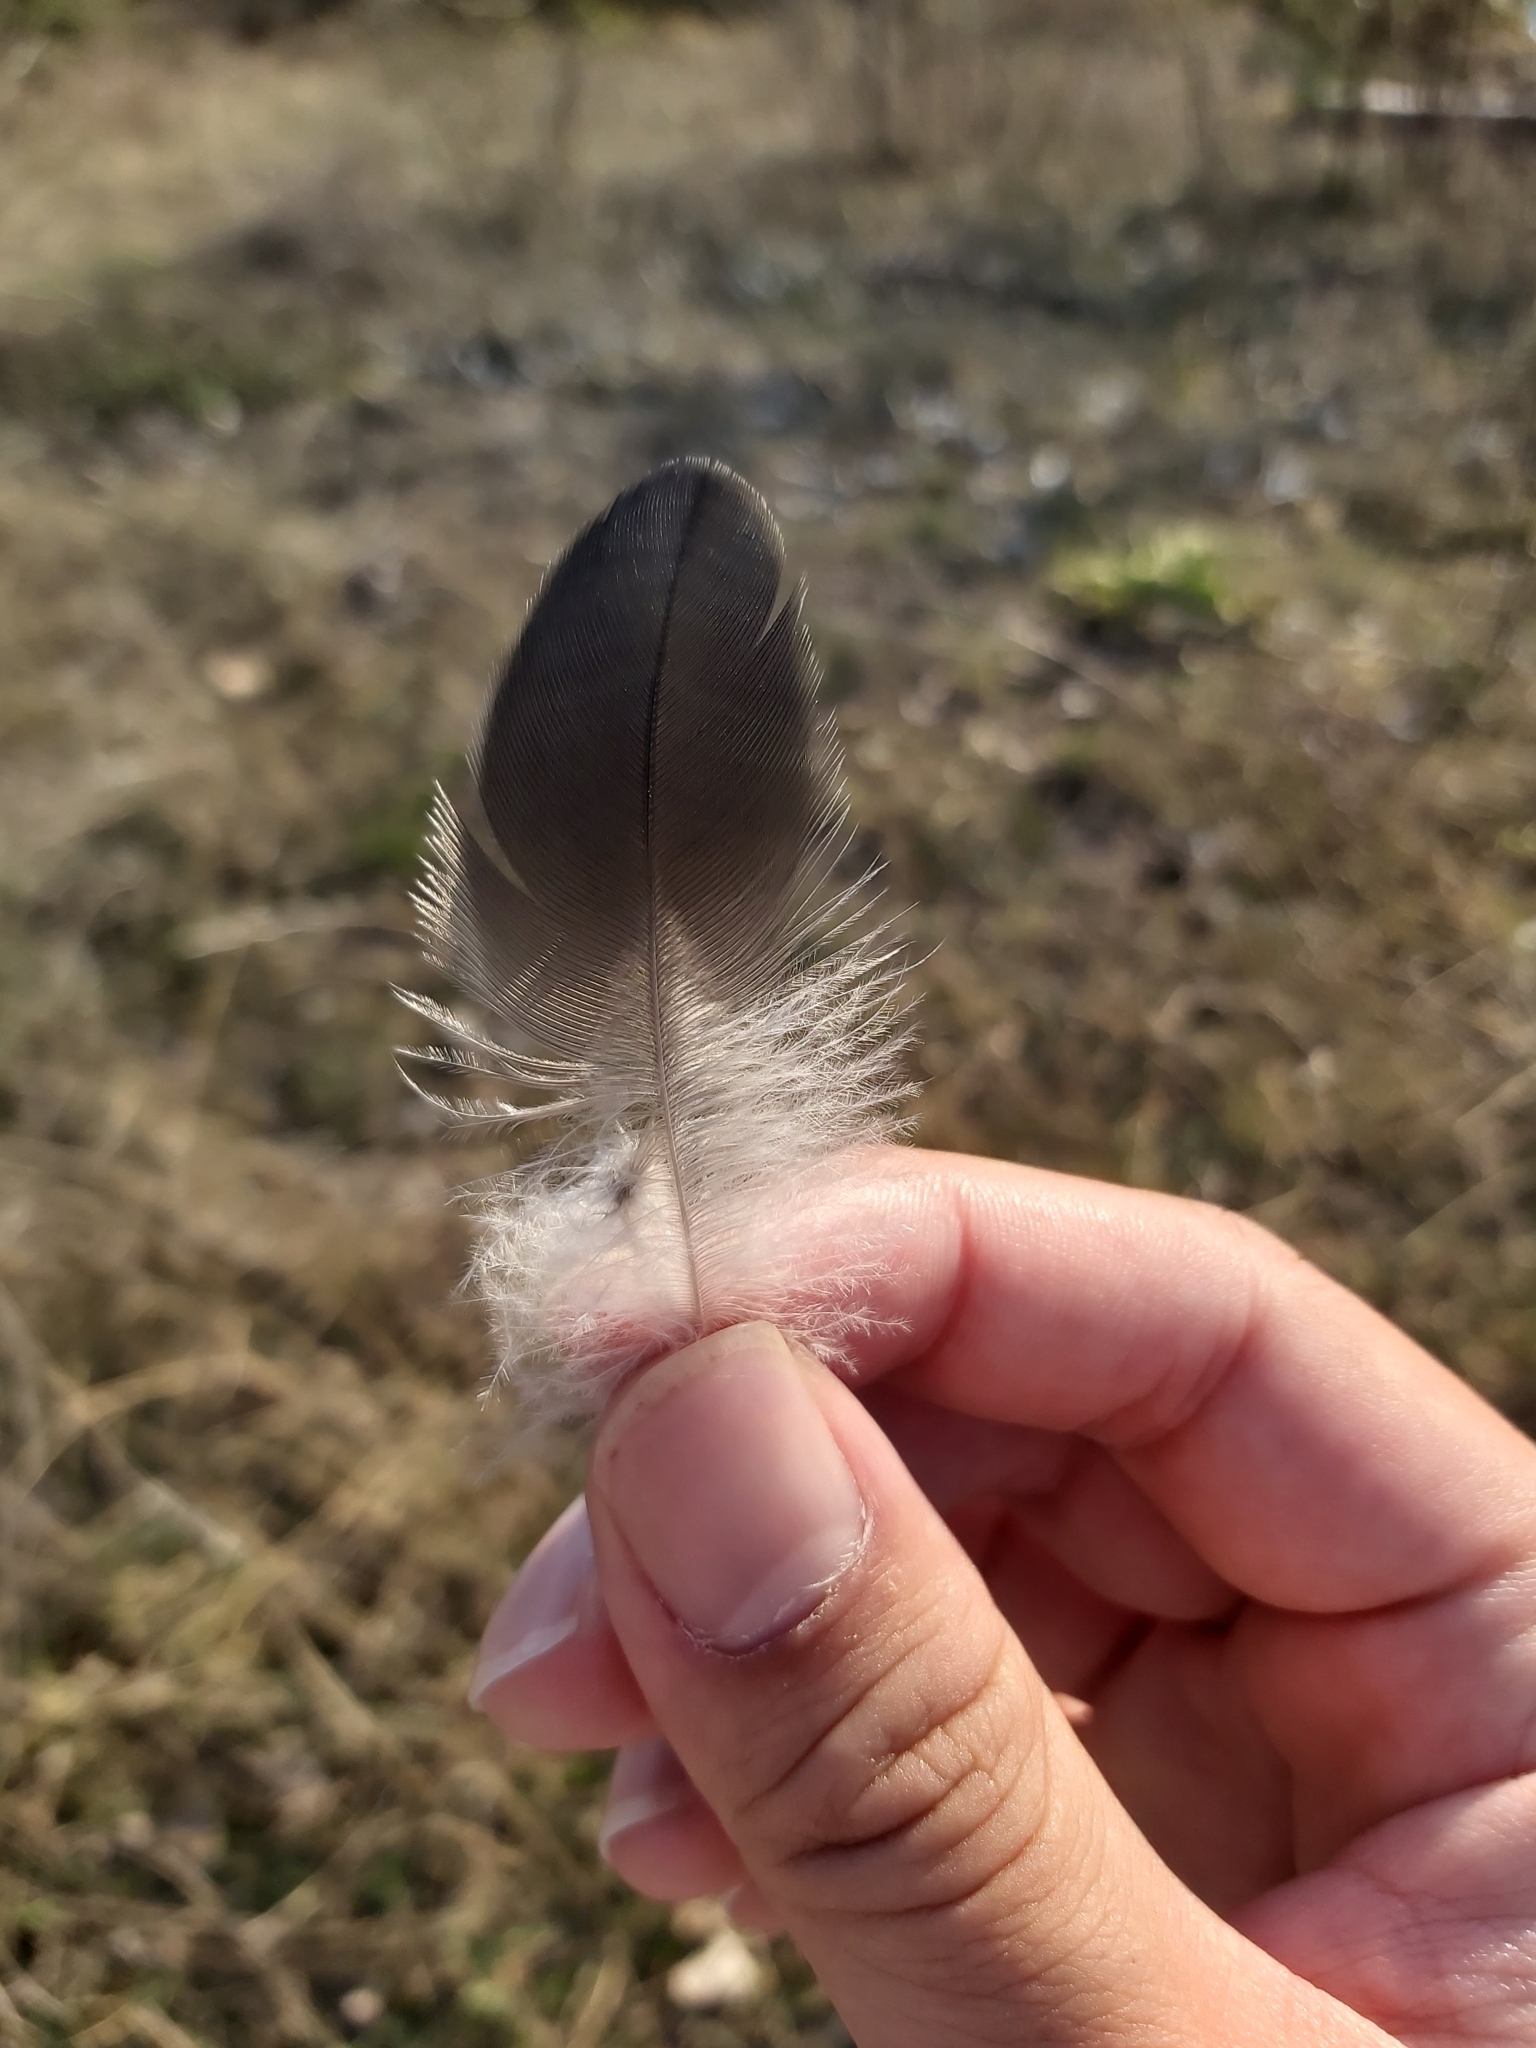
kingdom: Animalia
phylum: Chordata
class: Aves
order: Passeriformes
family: Corvidae
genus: Corvus
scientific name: Corvus cornix
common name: Hooded crow
